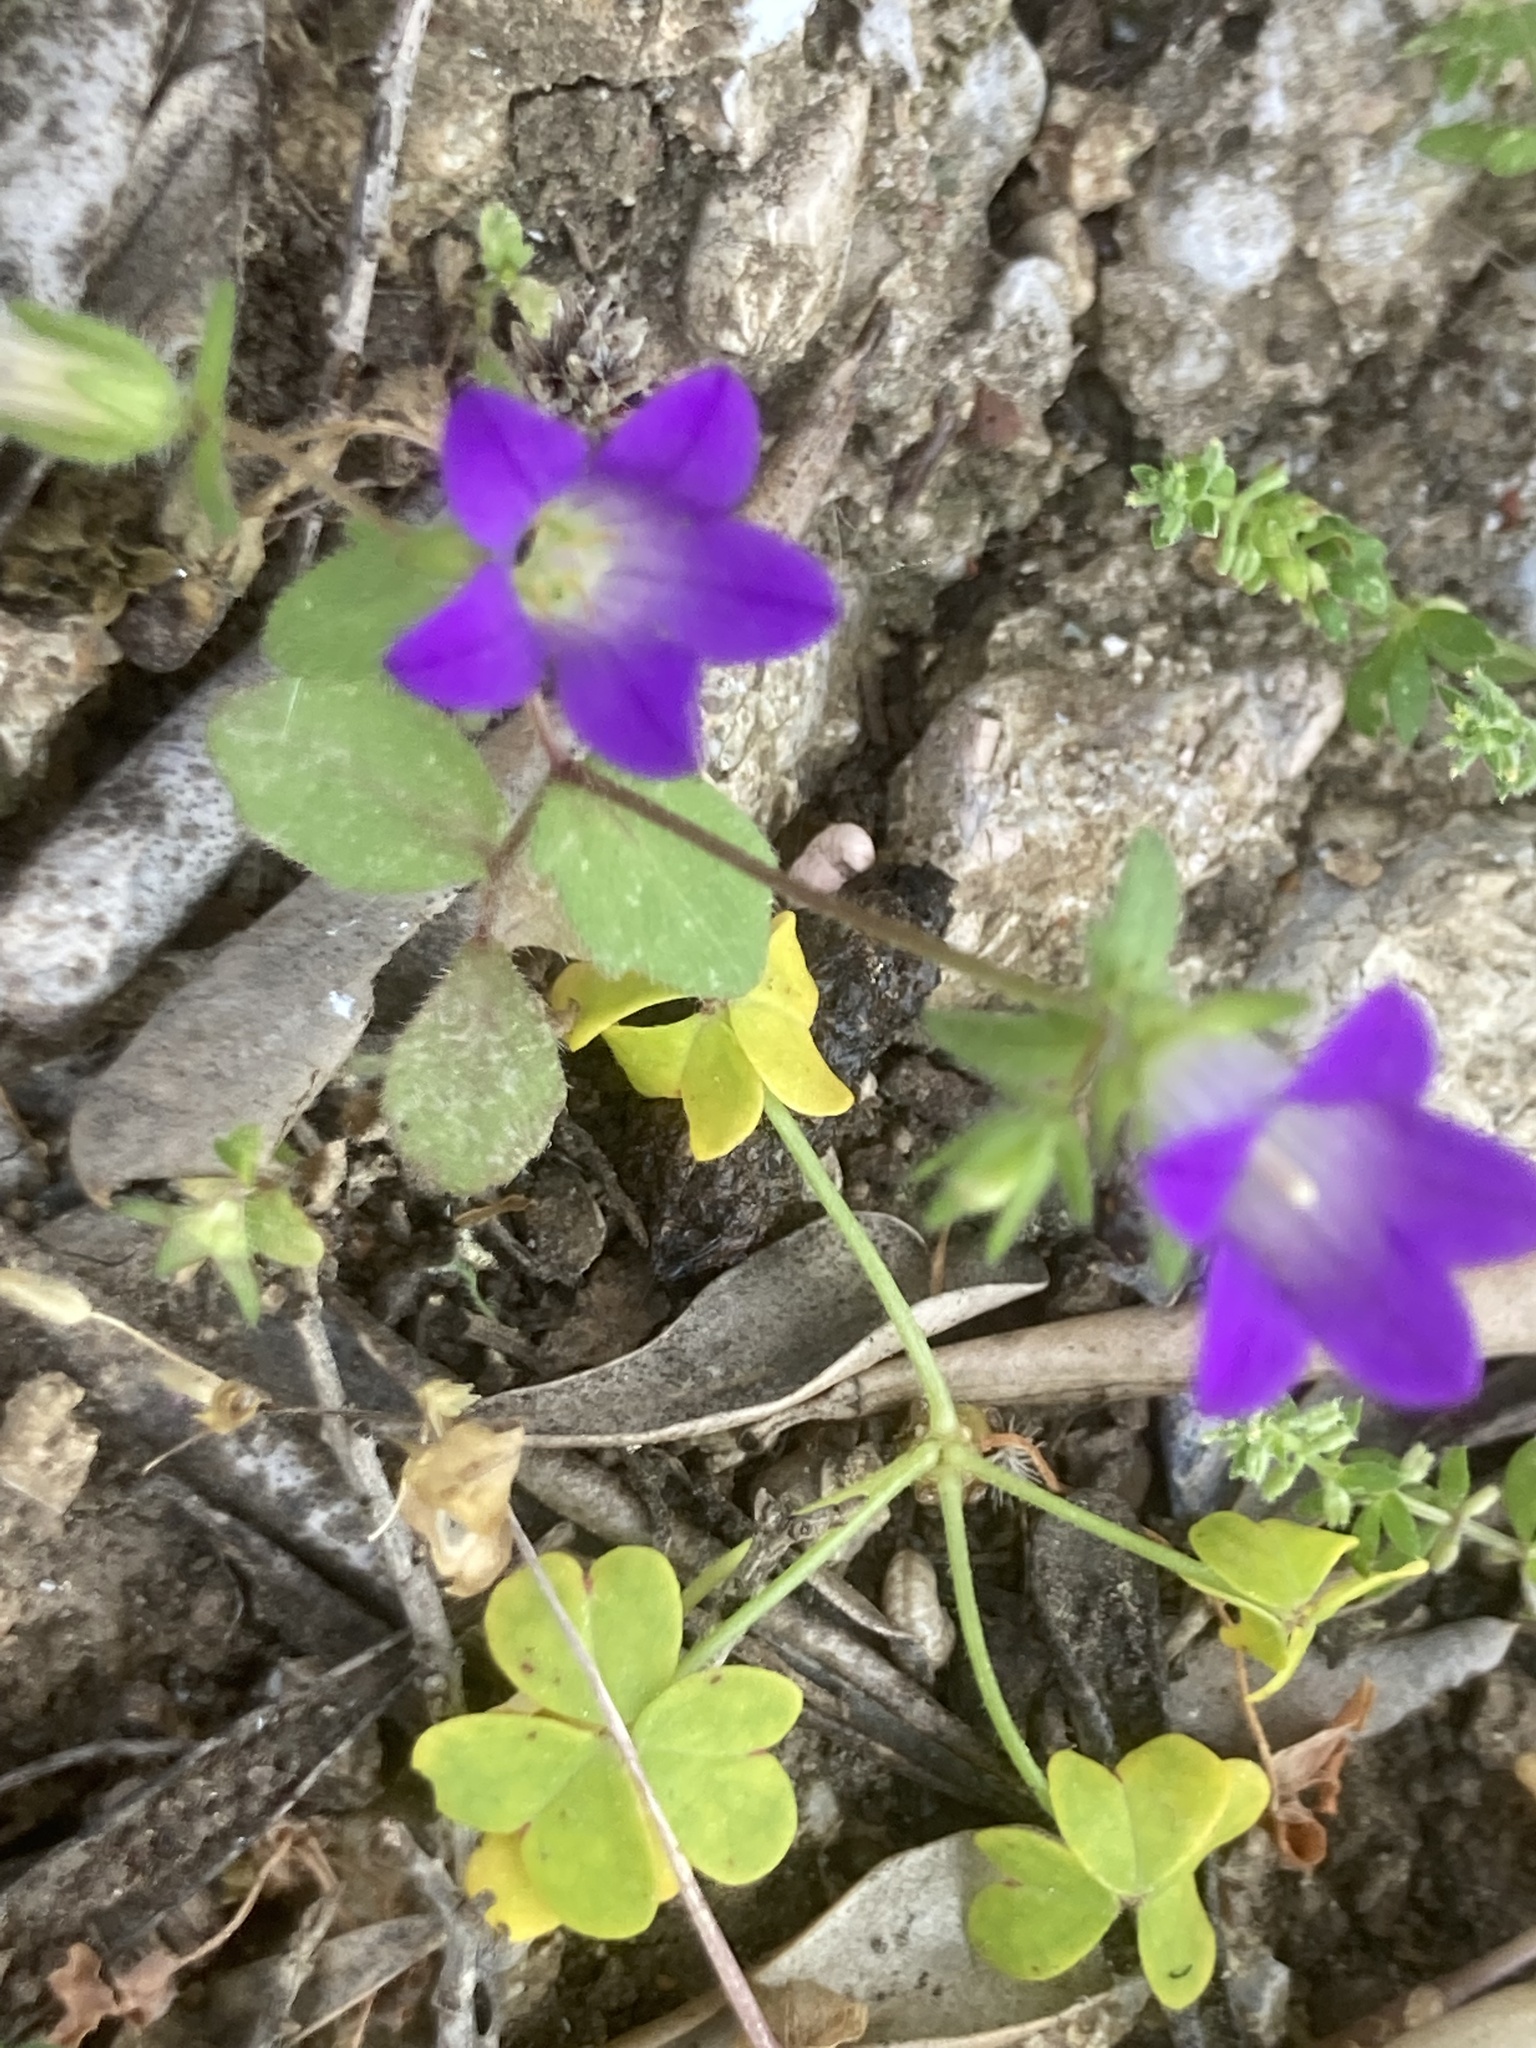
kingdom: Plantae
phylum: Tracheophyta
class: Magnoliopsida
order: Asterales
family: Campanulaceae
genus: Campanula
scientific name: Campanula rhodensis
